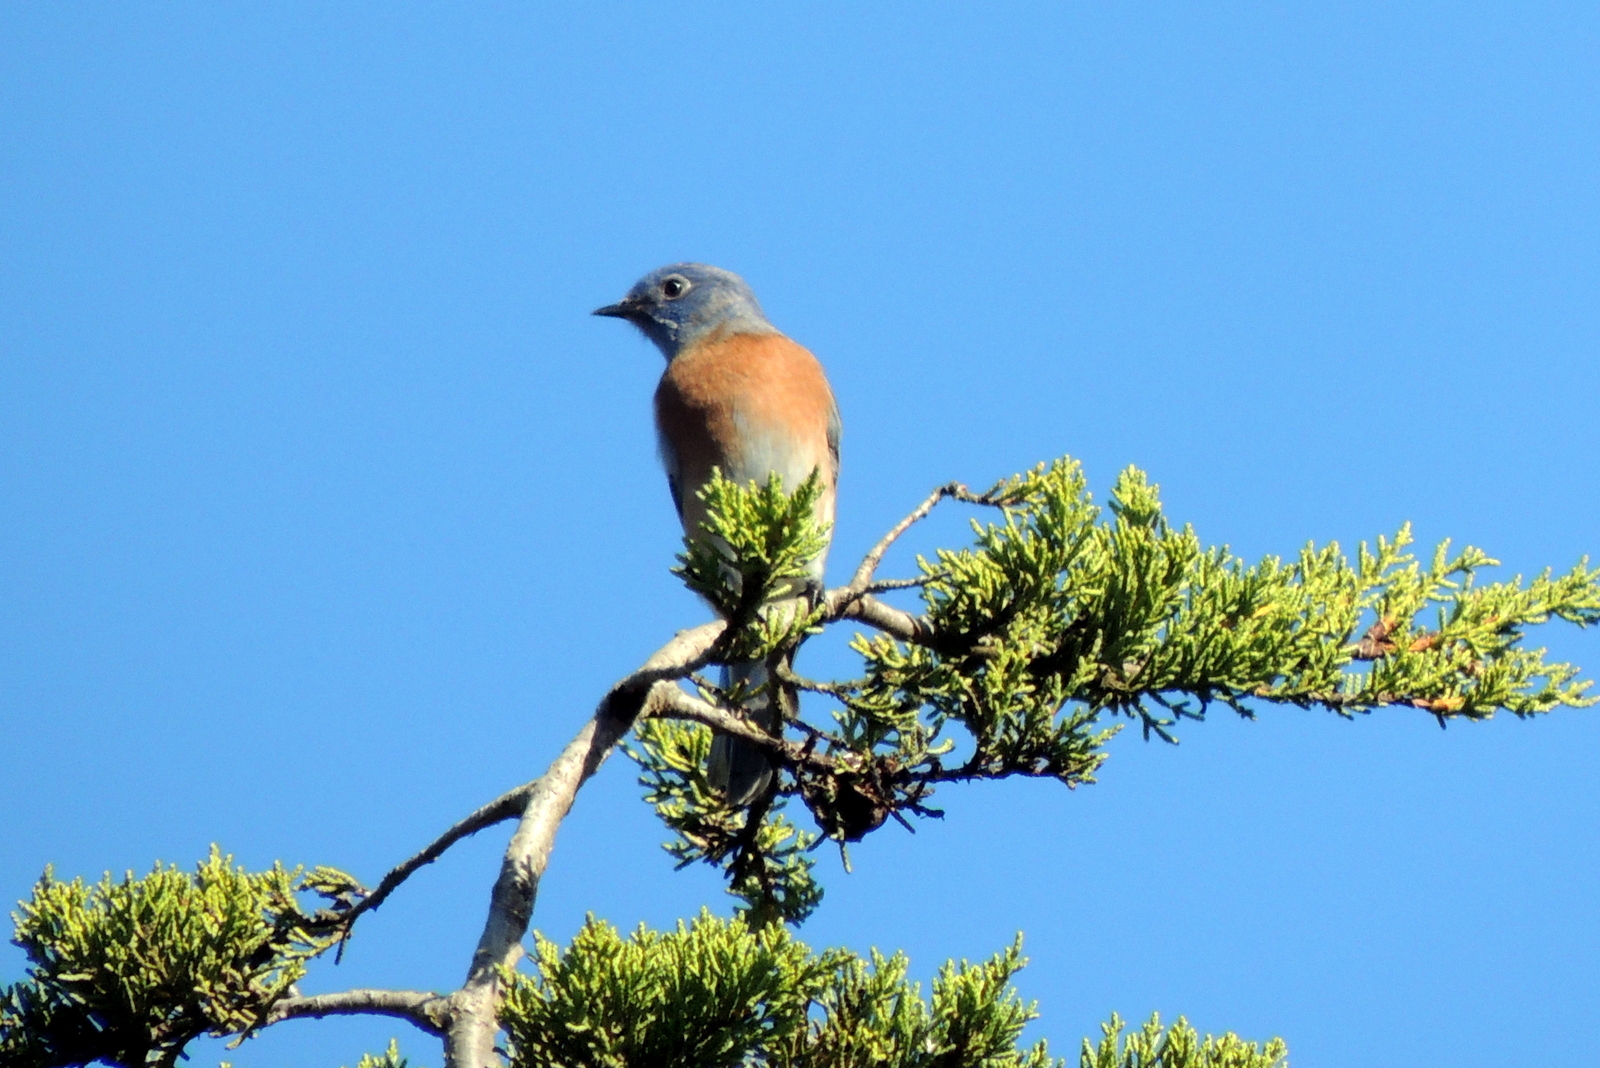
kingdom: Animalia
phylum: Chordata
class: Aves
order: Passeriformes
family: Turdidae
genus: Sialia
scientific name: Sialia mexicana
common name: Western bluebird
